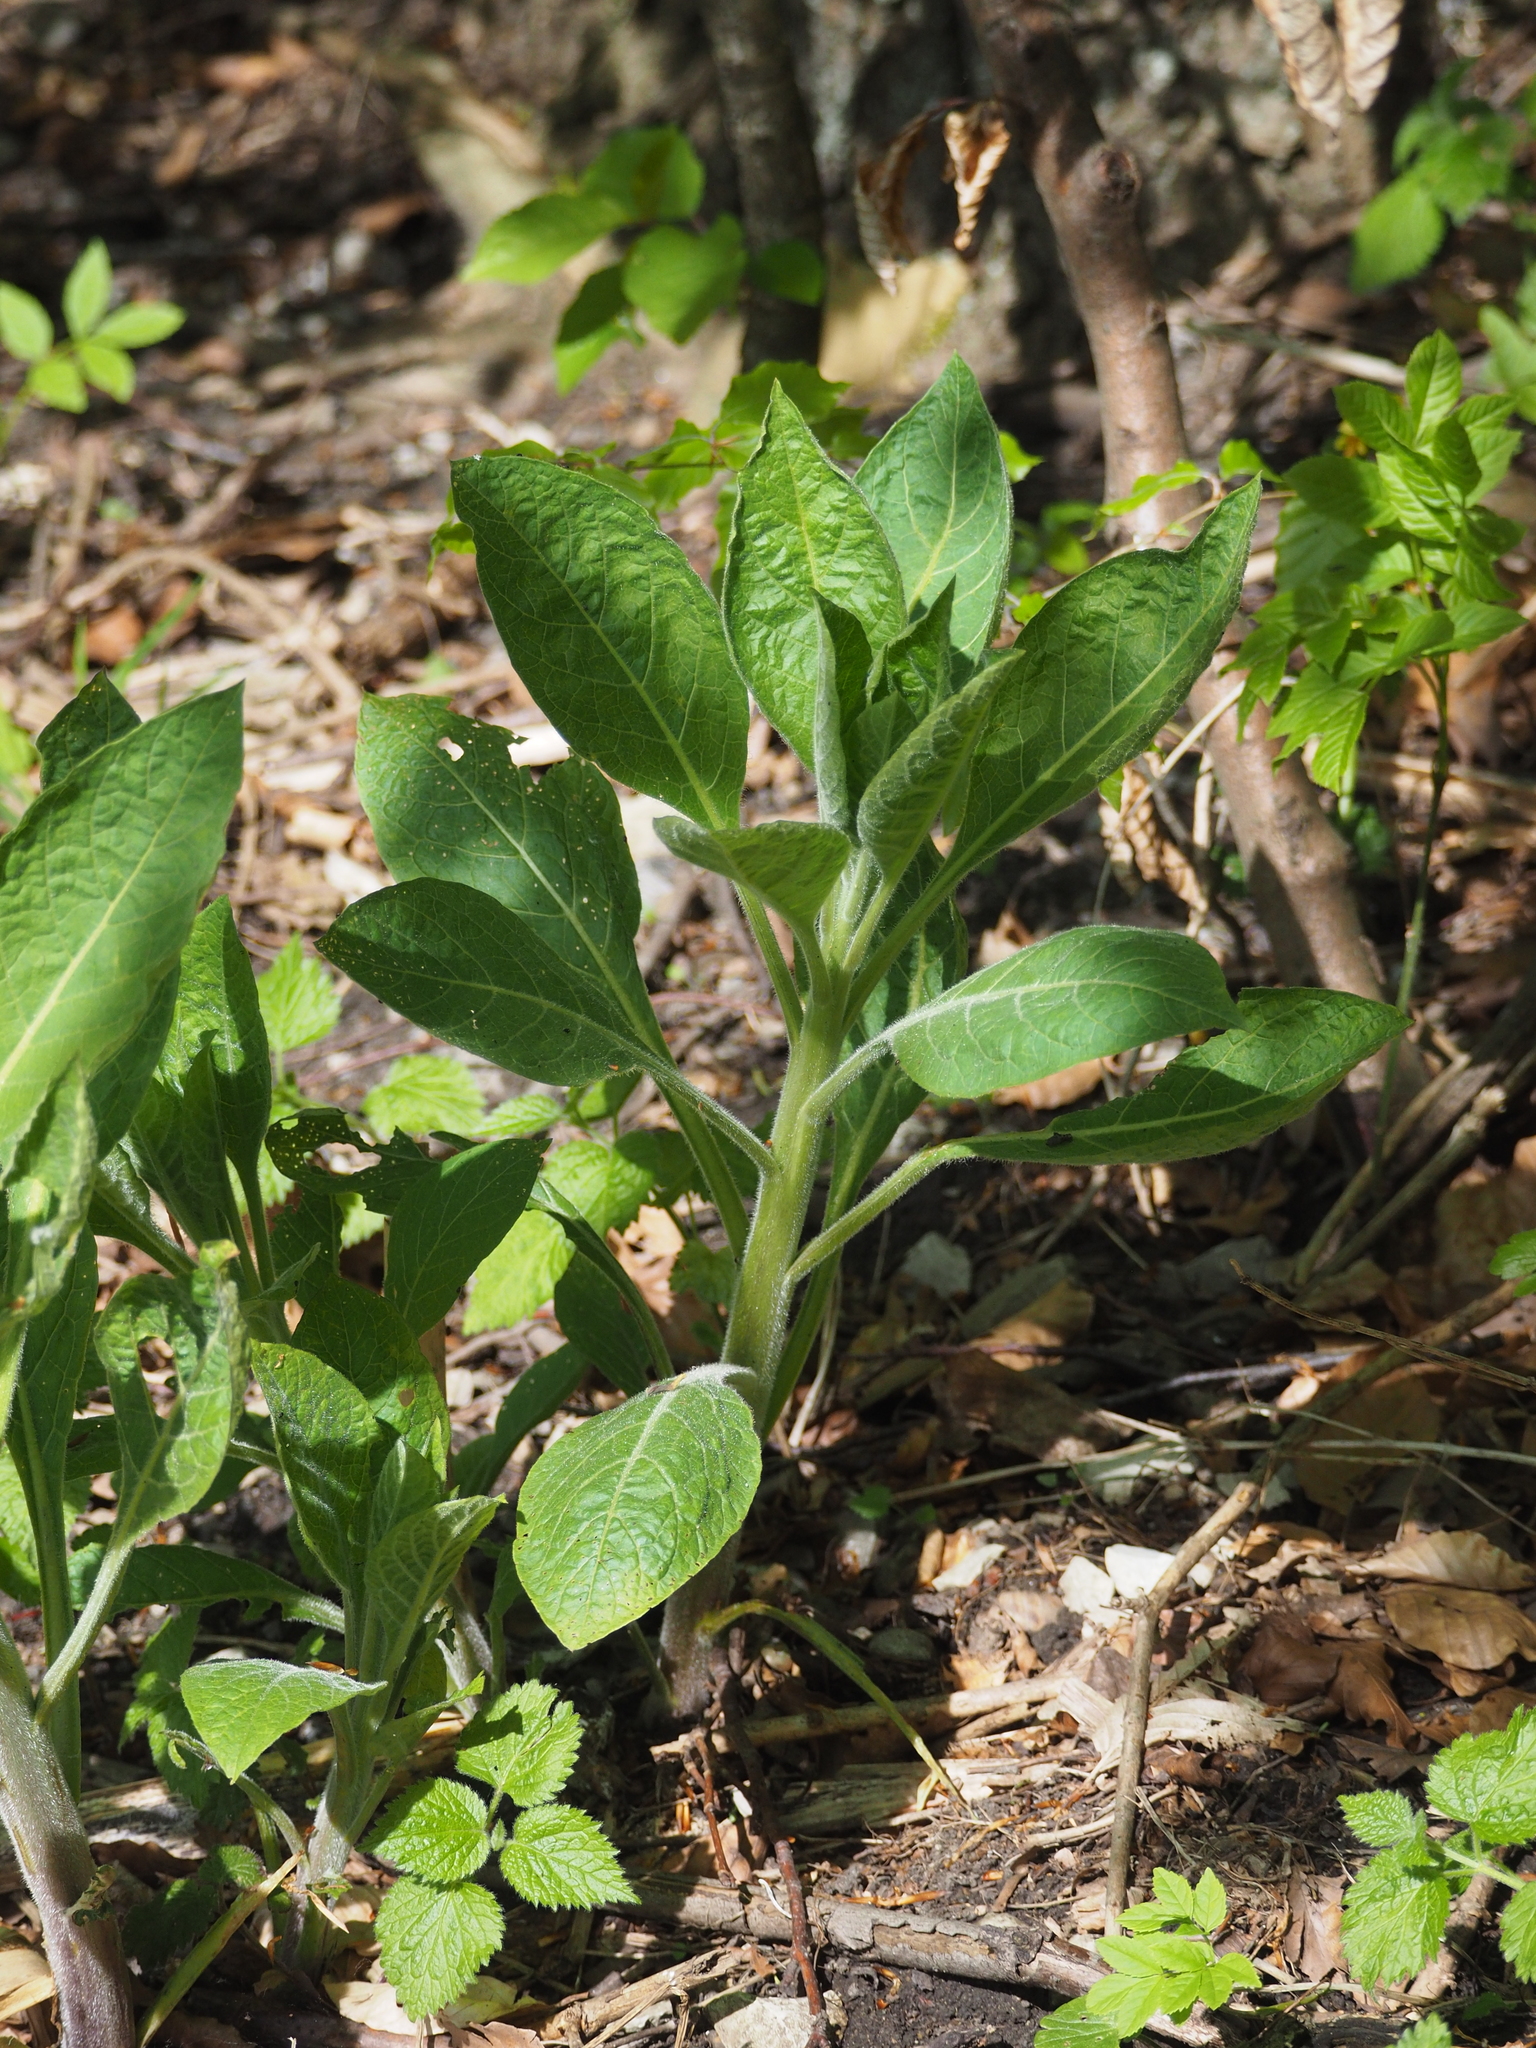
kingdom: Plantae
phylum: Tracheophyta
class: Magnoliopsida
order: Solanales
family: Solanaceae
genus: Atropa
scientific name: Atropa belladonna
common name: Deadly nightshade
